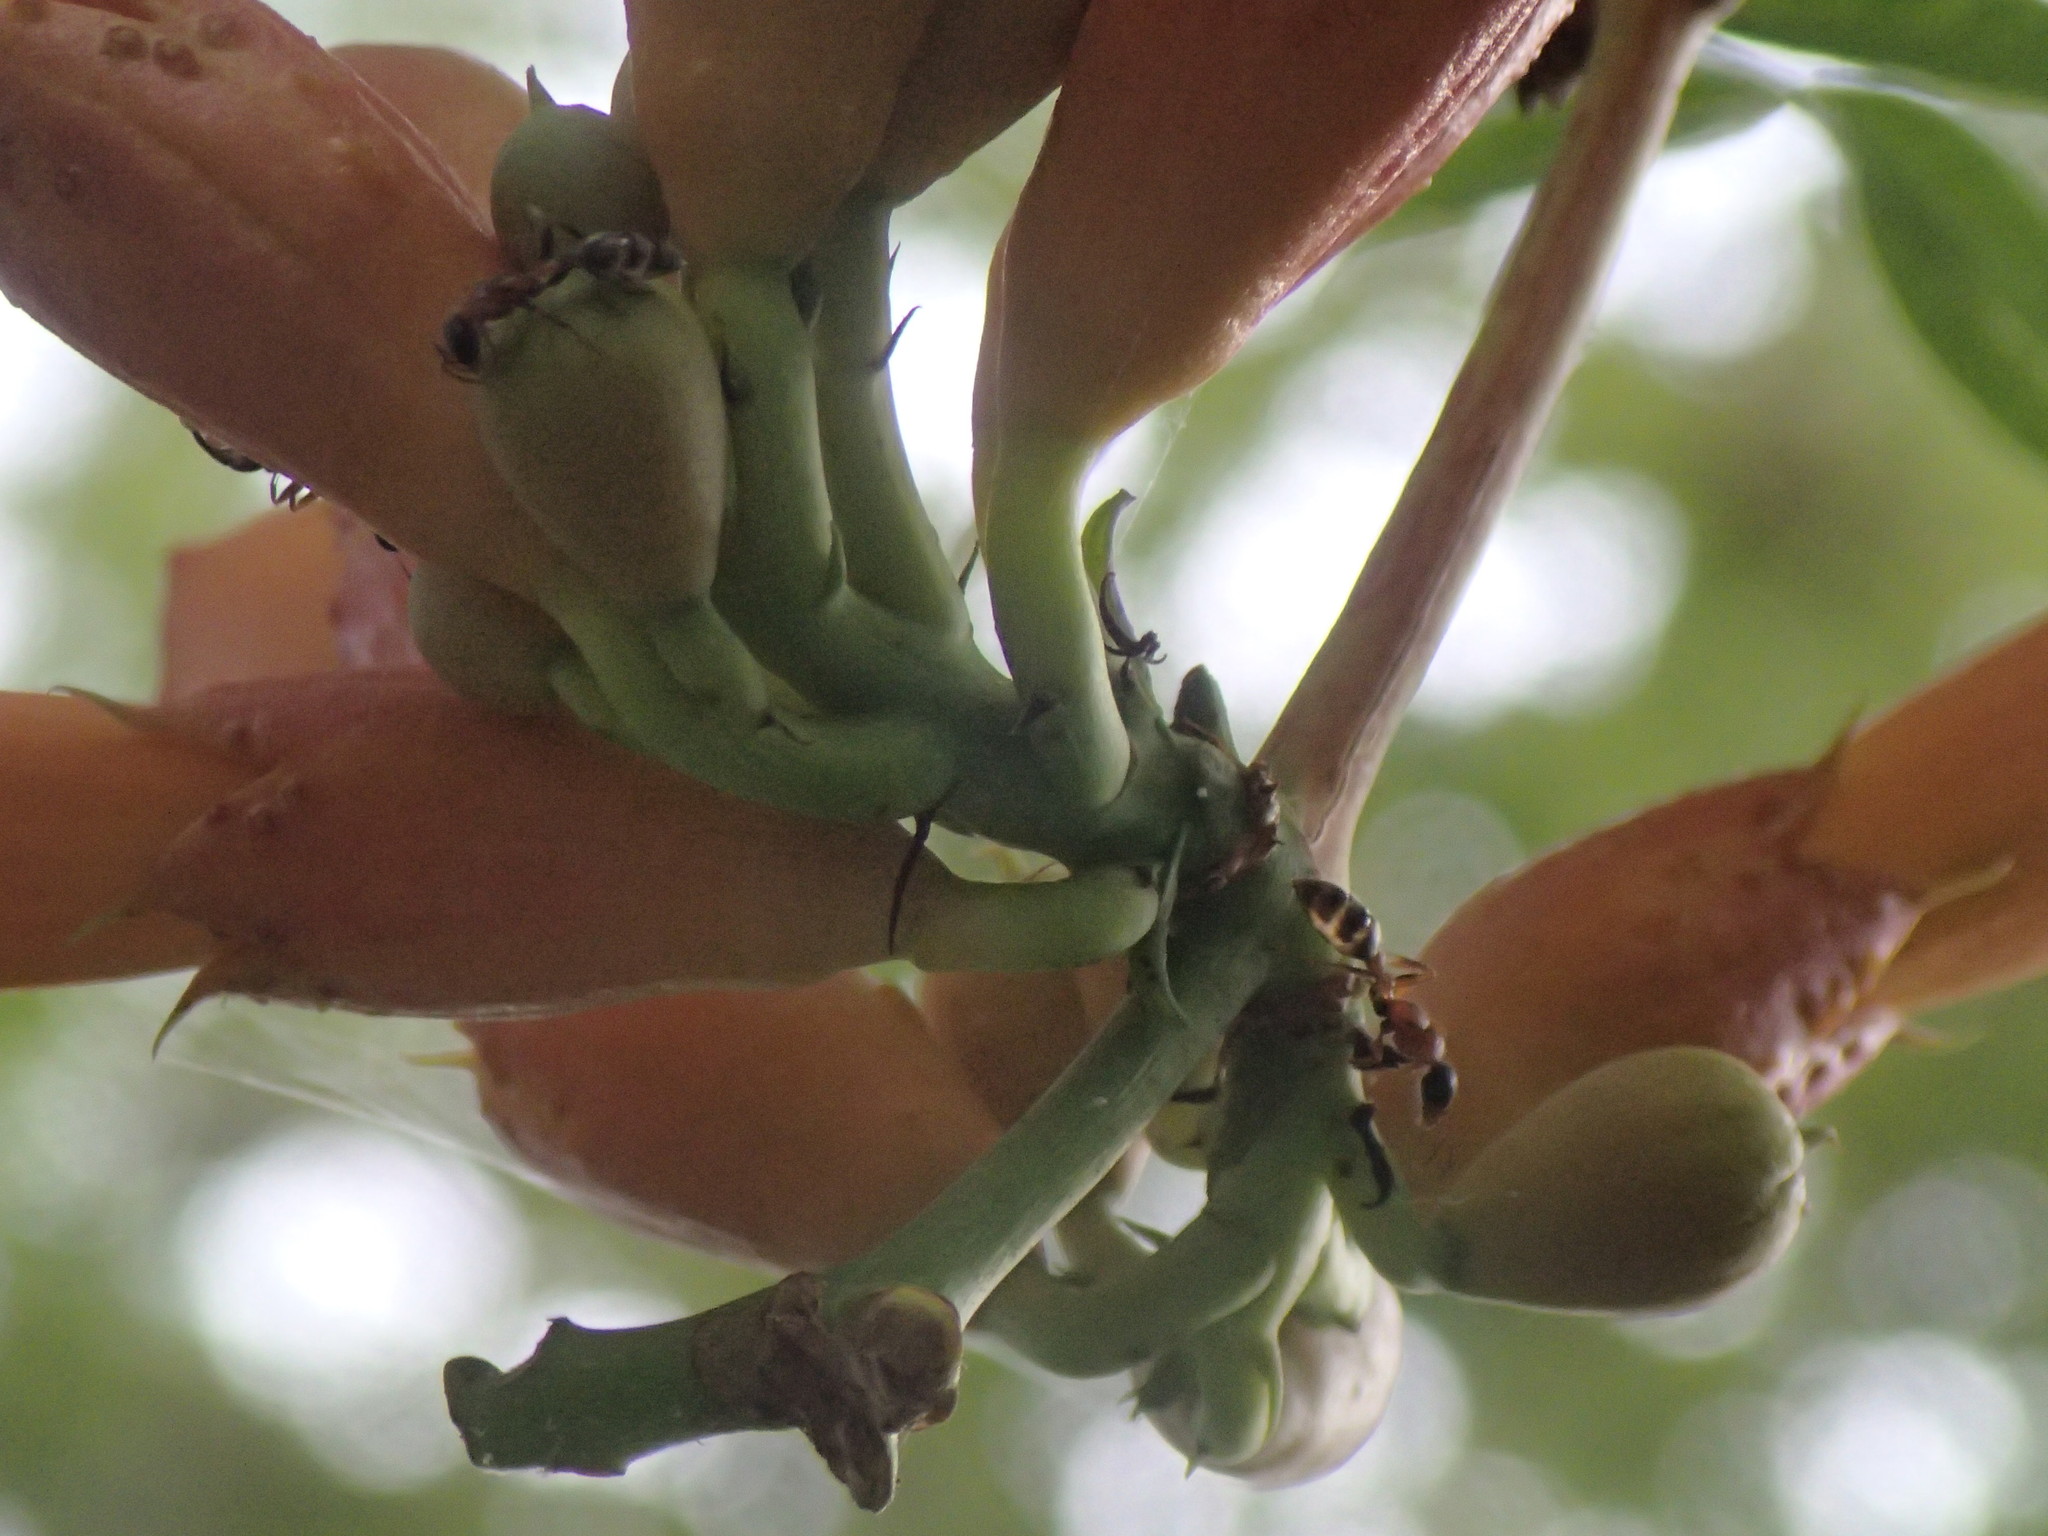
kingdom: Plantae
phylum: Tracheophyta
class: Magnoliopsida
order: Lamiales
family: Bignoniaceae
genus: Campsis
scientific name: Campsis radicans
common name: Trumpet-creeper
